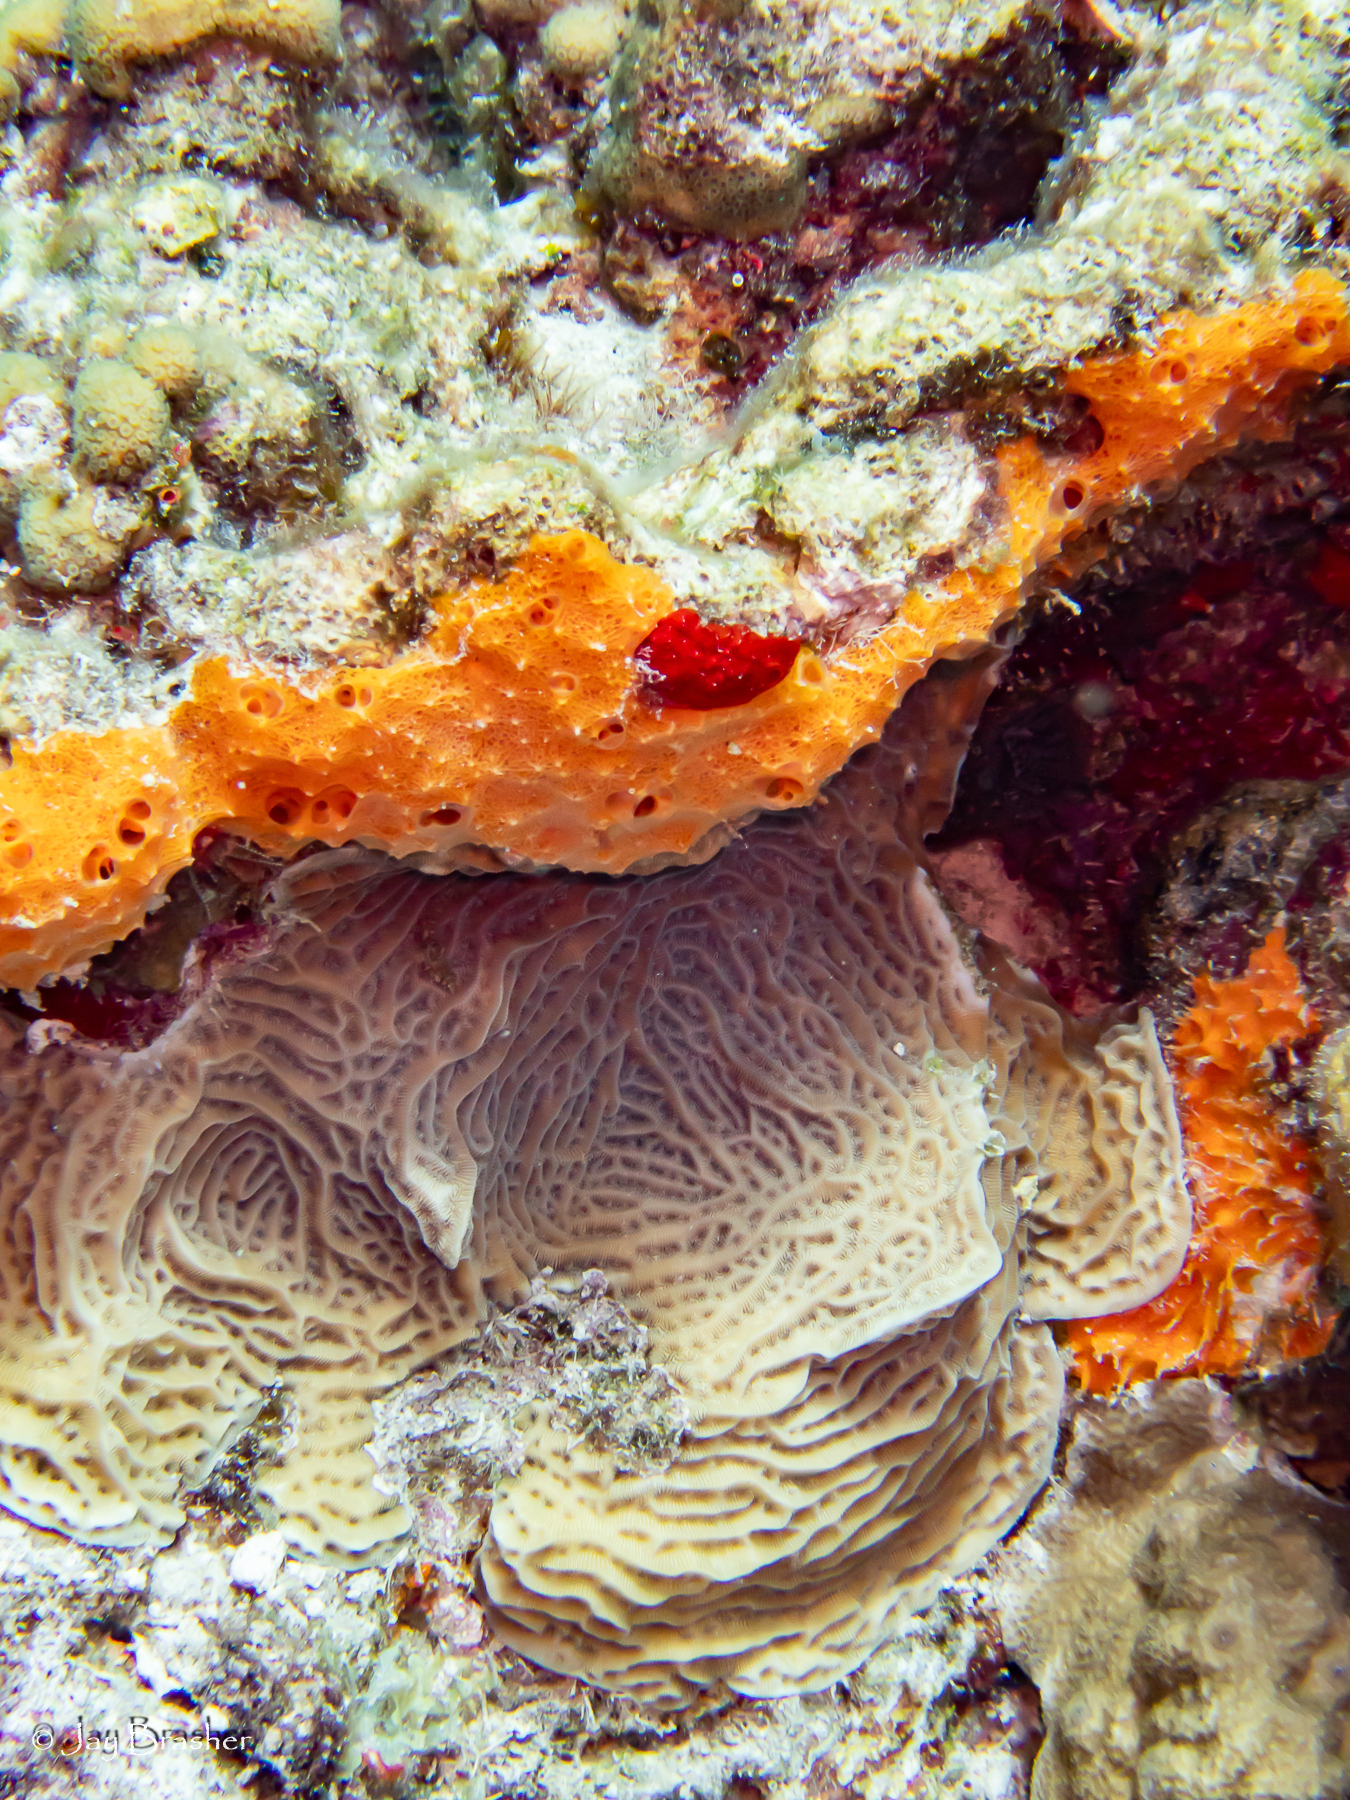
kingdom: Animalia
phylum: Cnidaria
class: Anthozoa
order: Scleractinia
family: Poritidae
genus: Porites
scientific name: Porites astreoides
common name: Mustard hill coral
